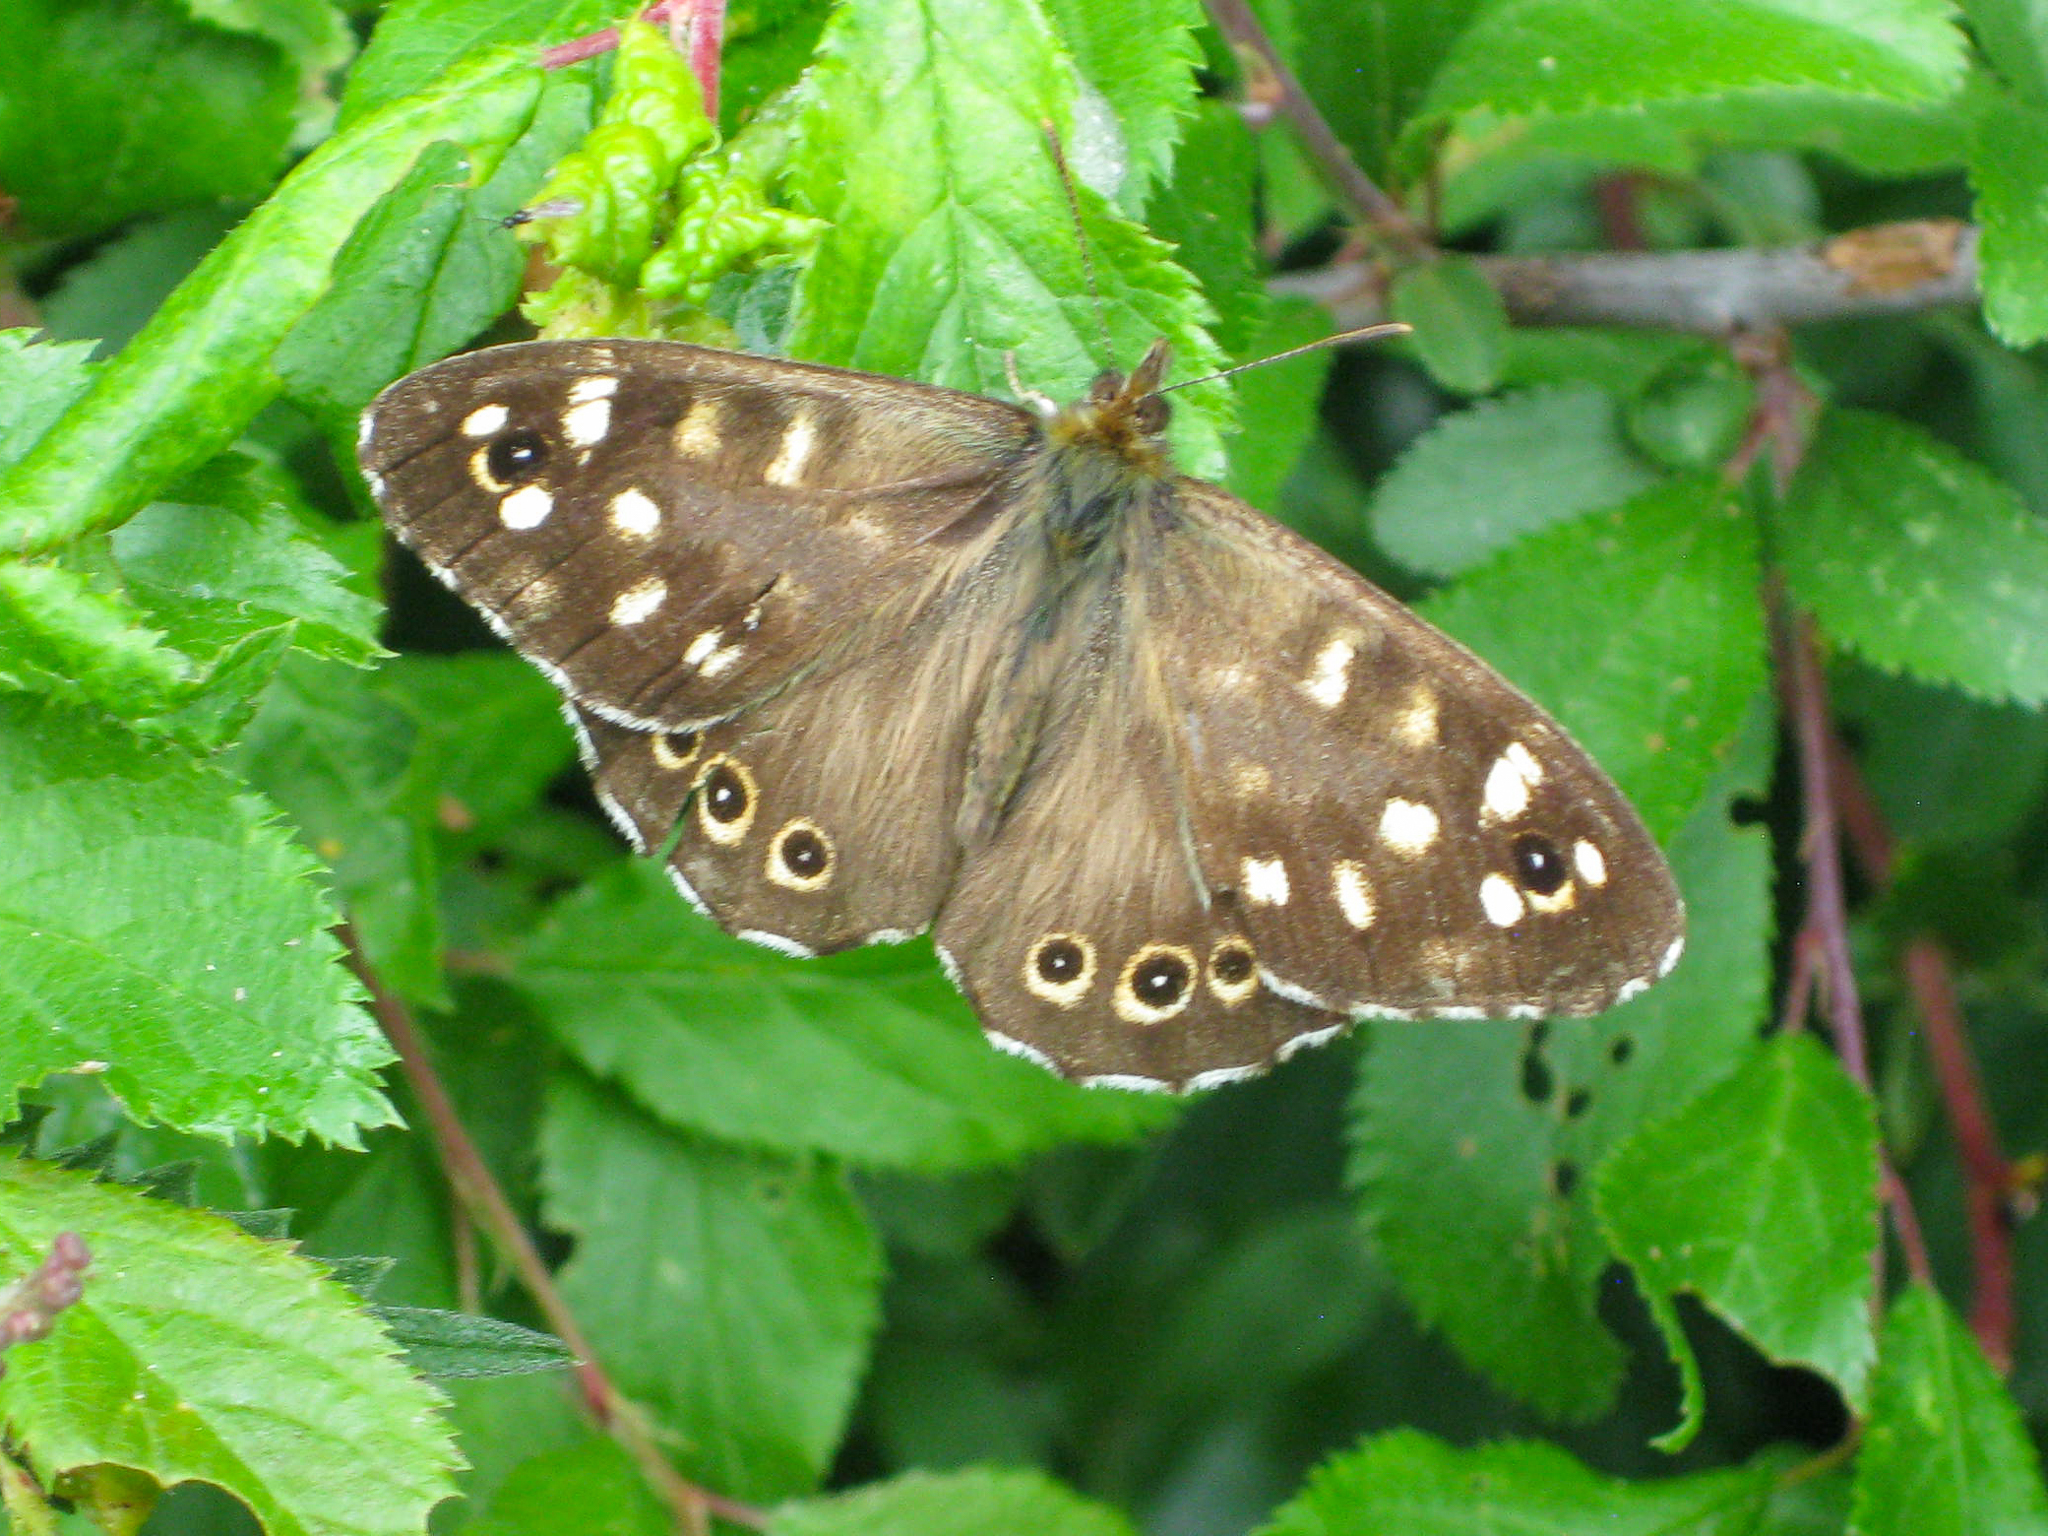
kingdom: Animalia
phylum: Arthropoda
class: Insecta
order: Lepidoptera
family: Nymphalidae
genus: Pararge
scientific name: Pararge aegeria
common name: Speckled wood
